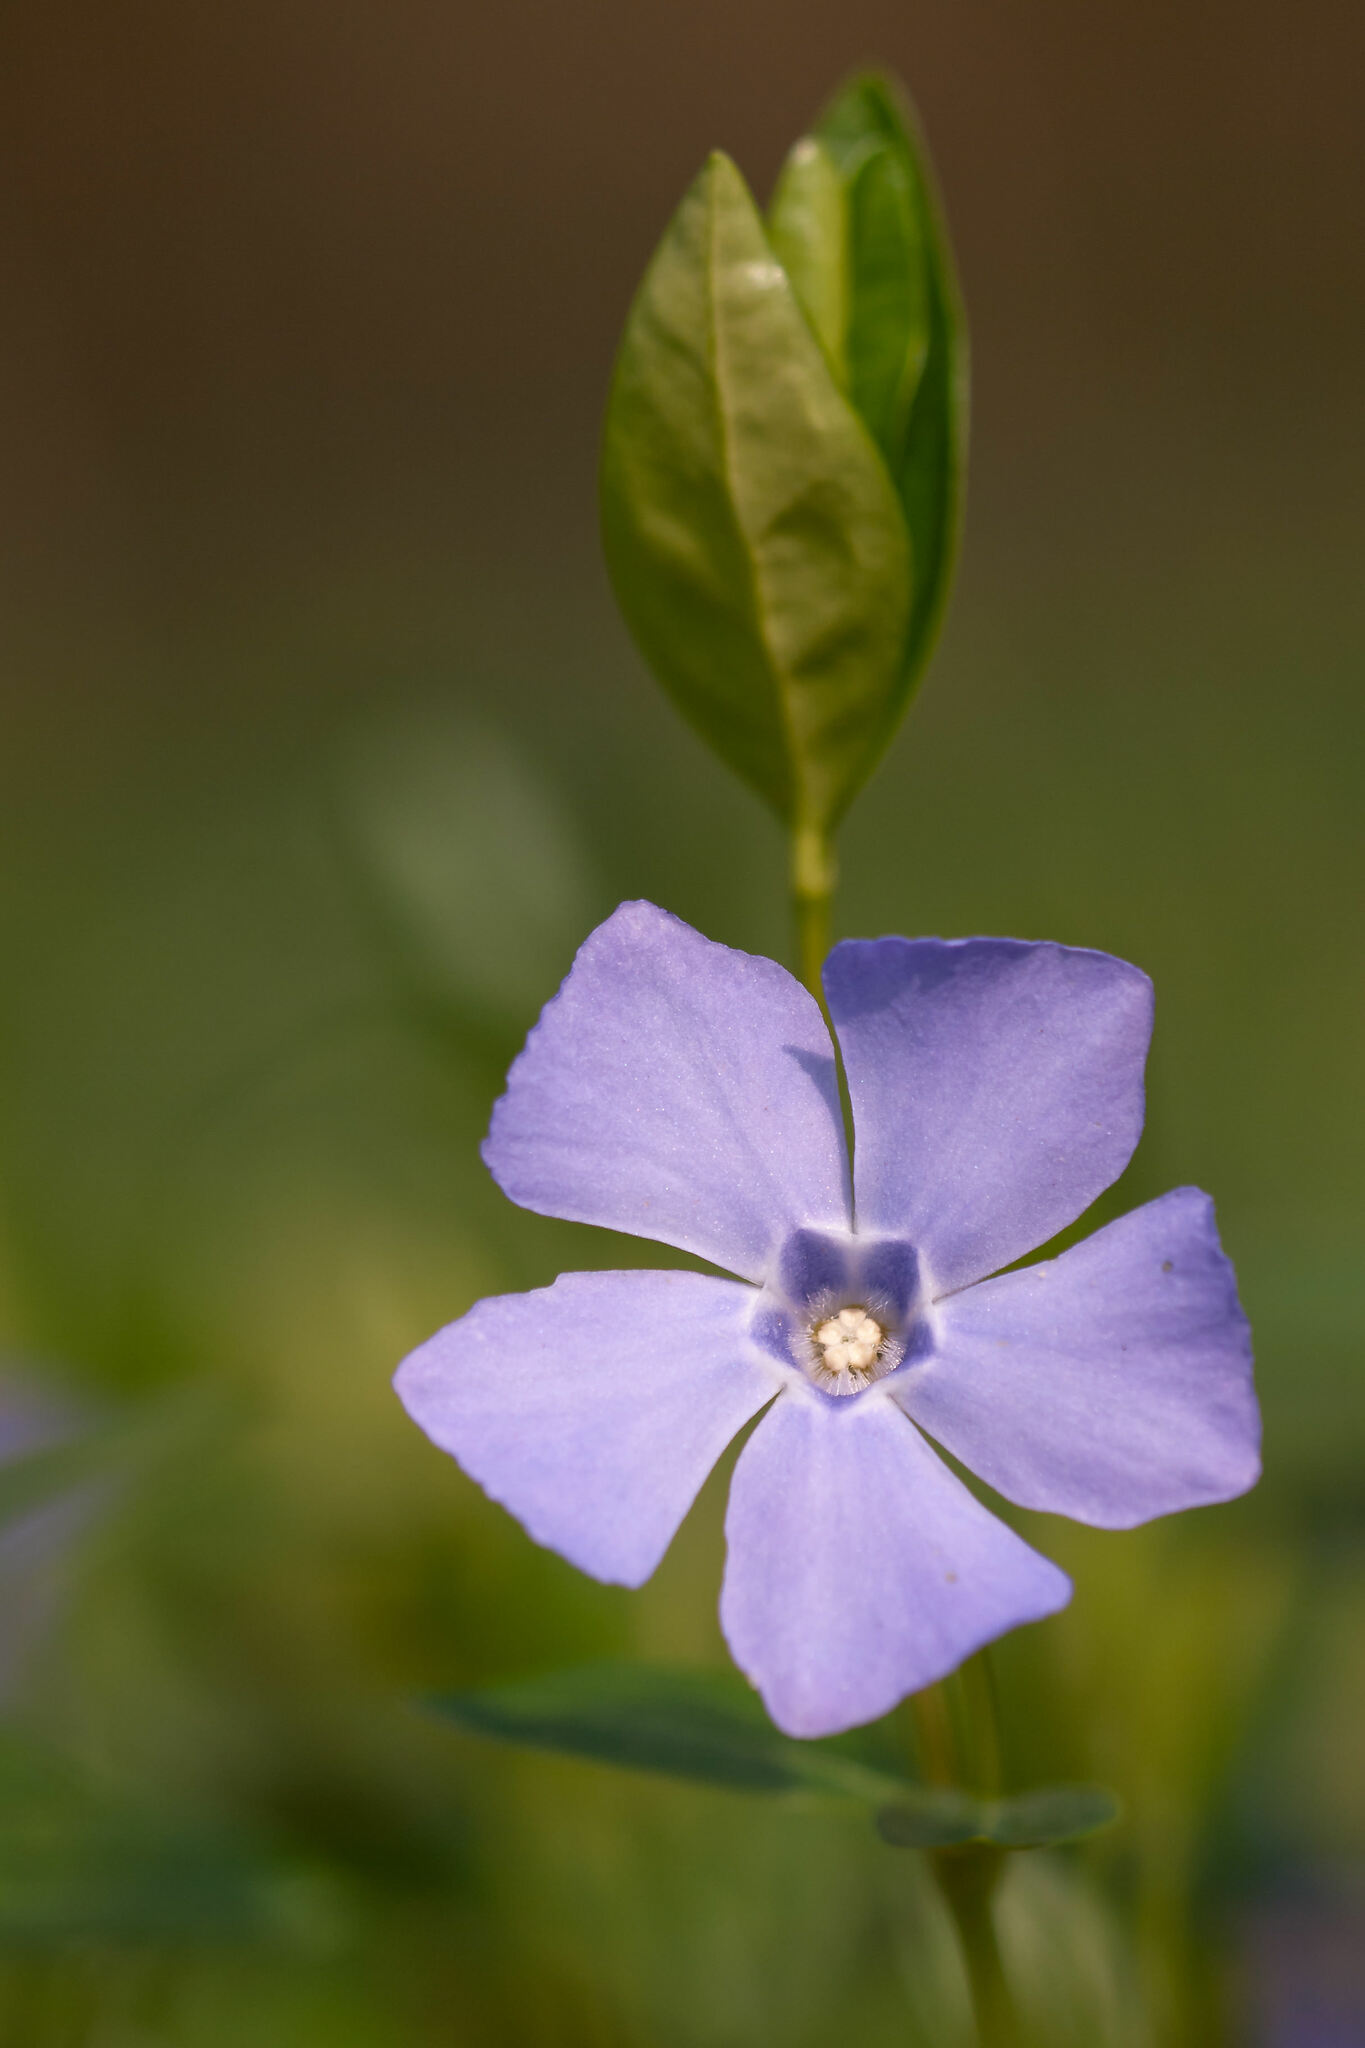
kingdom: Plantae
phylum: Tracheophyta
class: Magnoliopsida
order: Gentianales
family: Apocynaceae
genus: Vinca
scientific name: Vinca minor
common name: Lesser periwinkle
